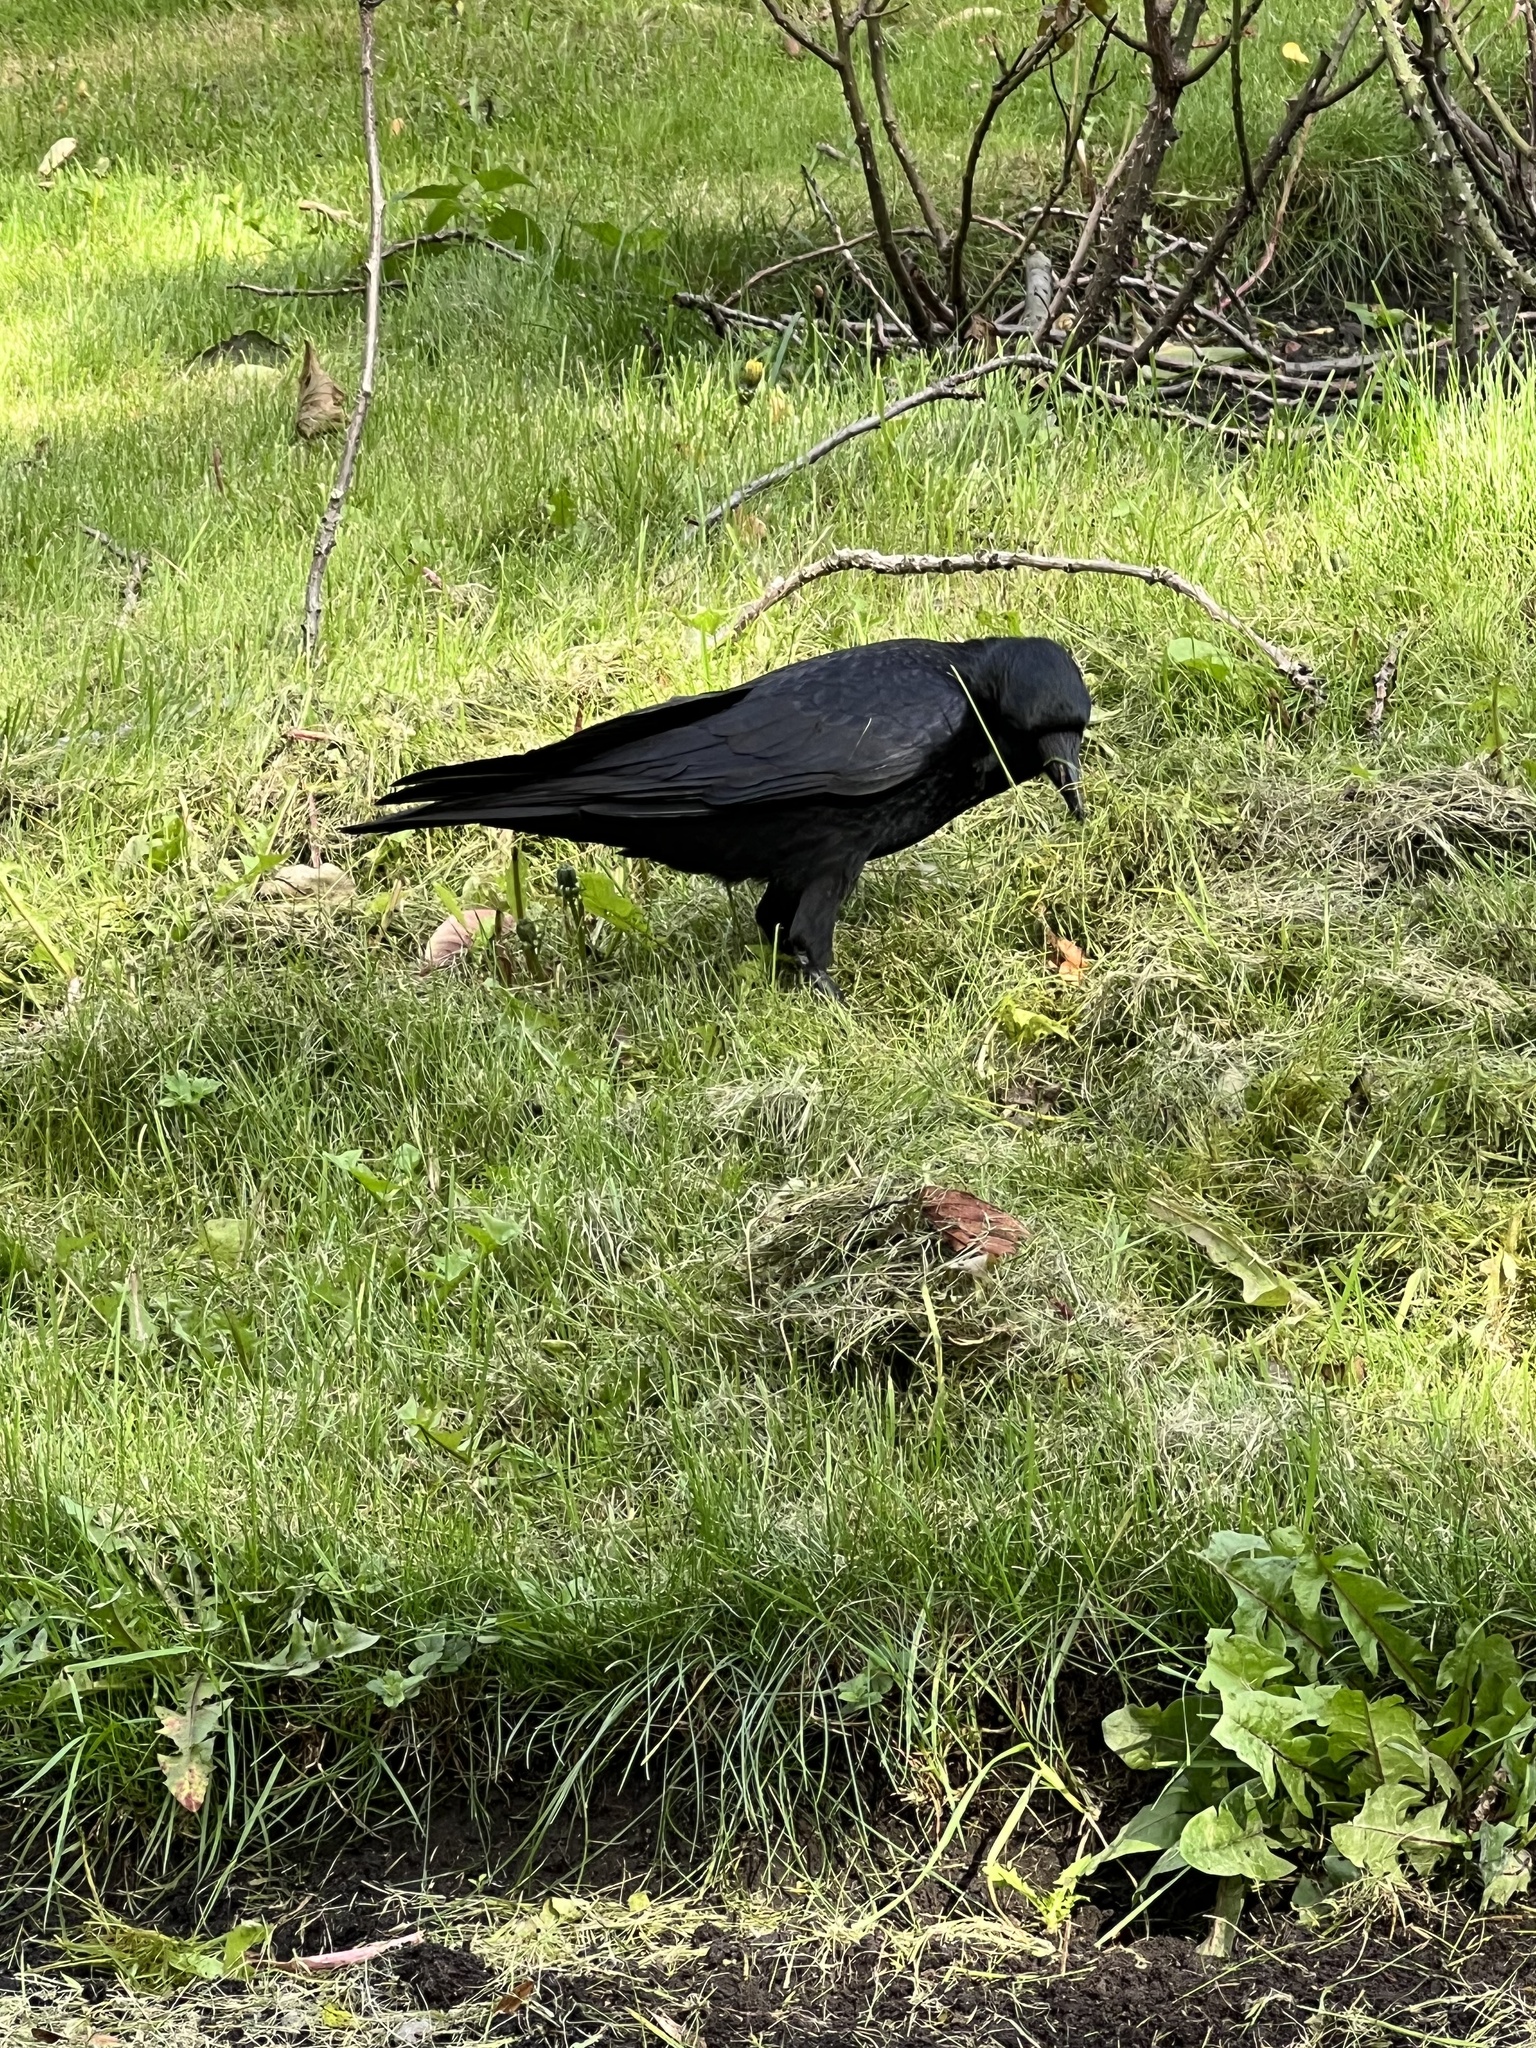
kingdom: Animalia
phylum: Chordata
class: Aves
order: Passeriformes
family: Corvidae
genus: Corvus
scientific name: Corvus corone
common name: Carrion crow
